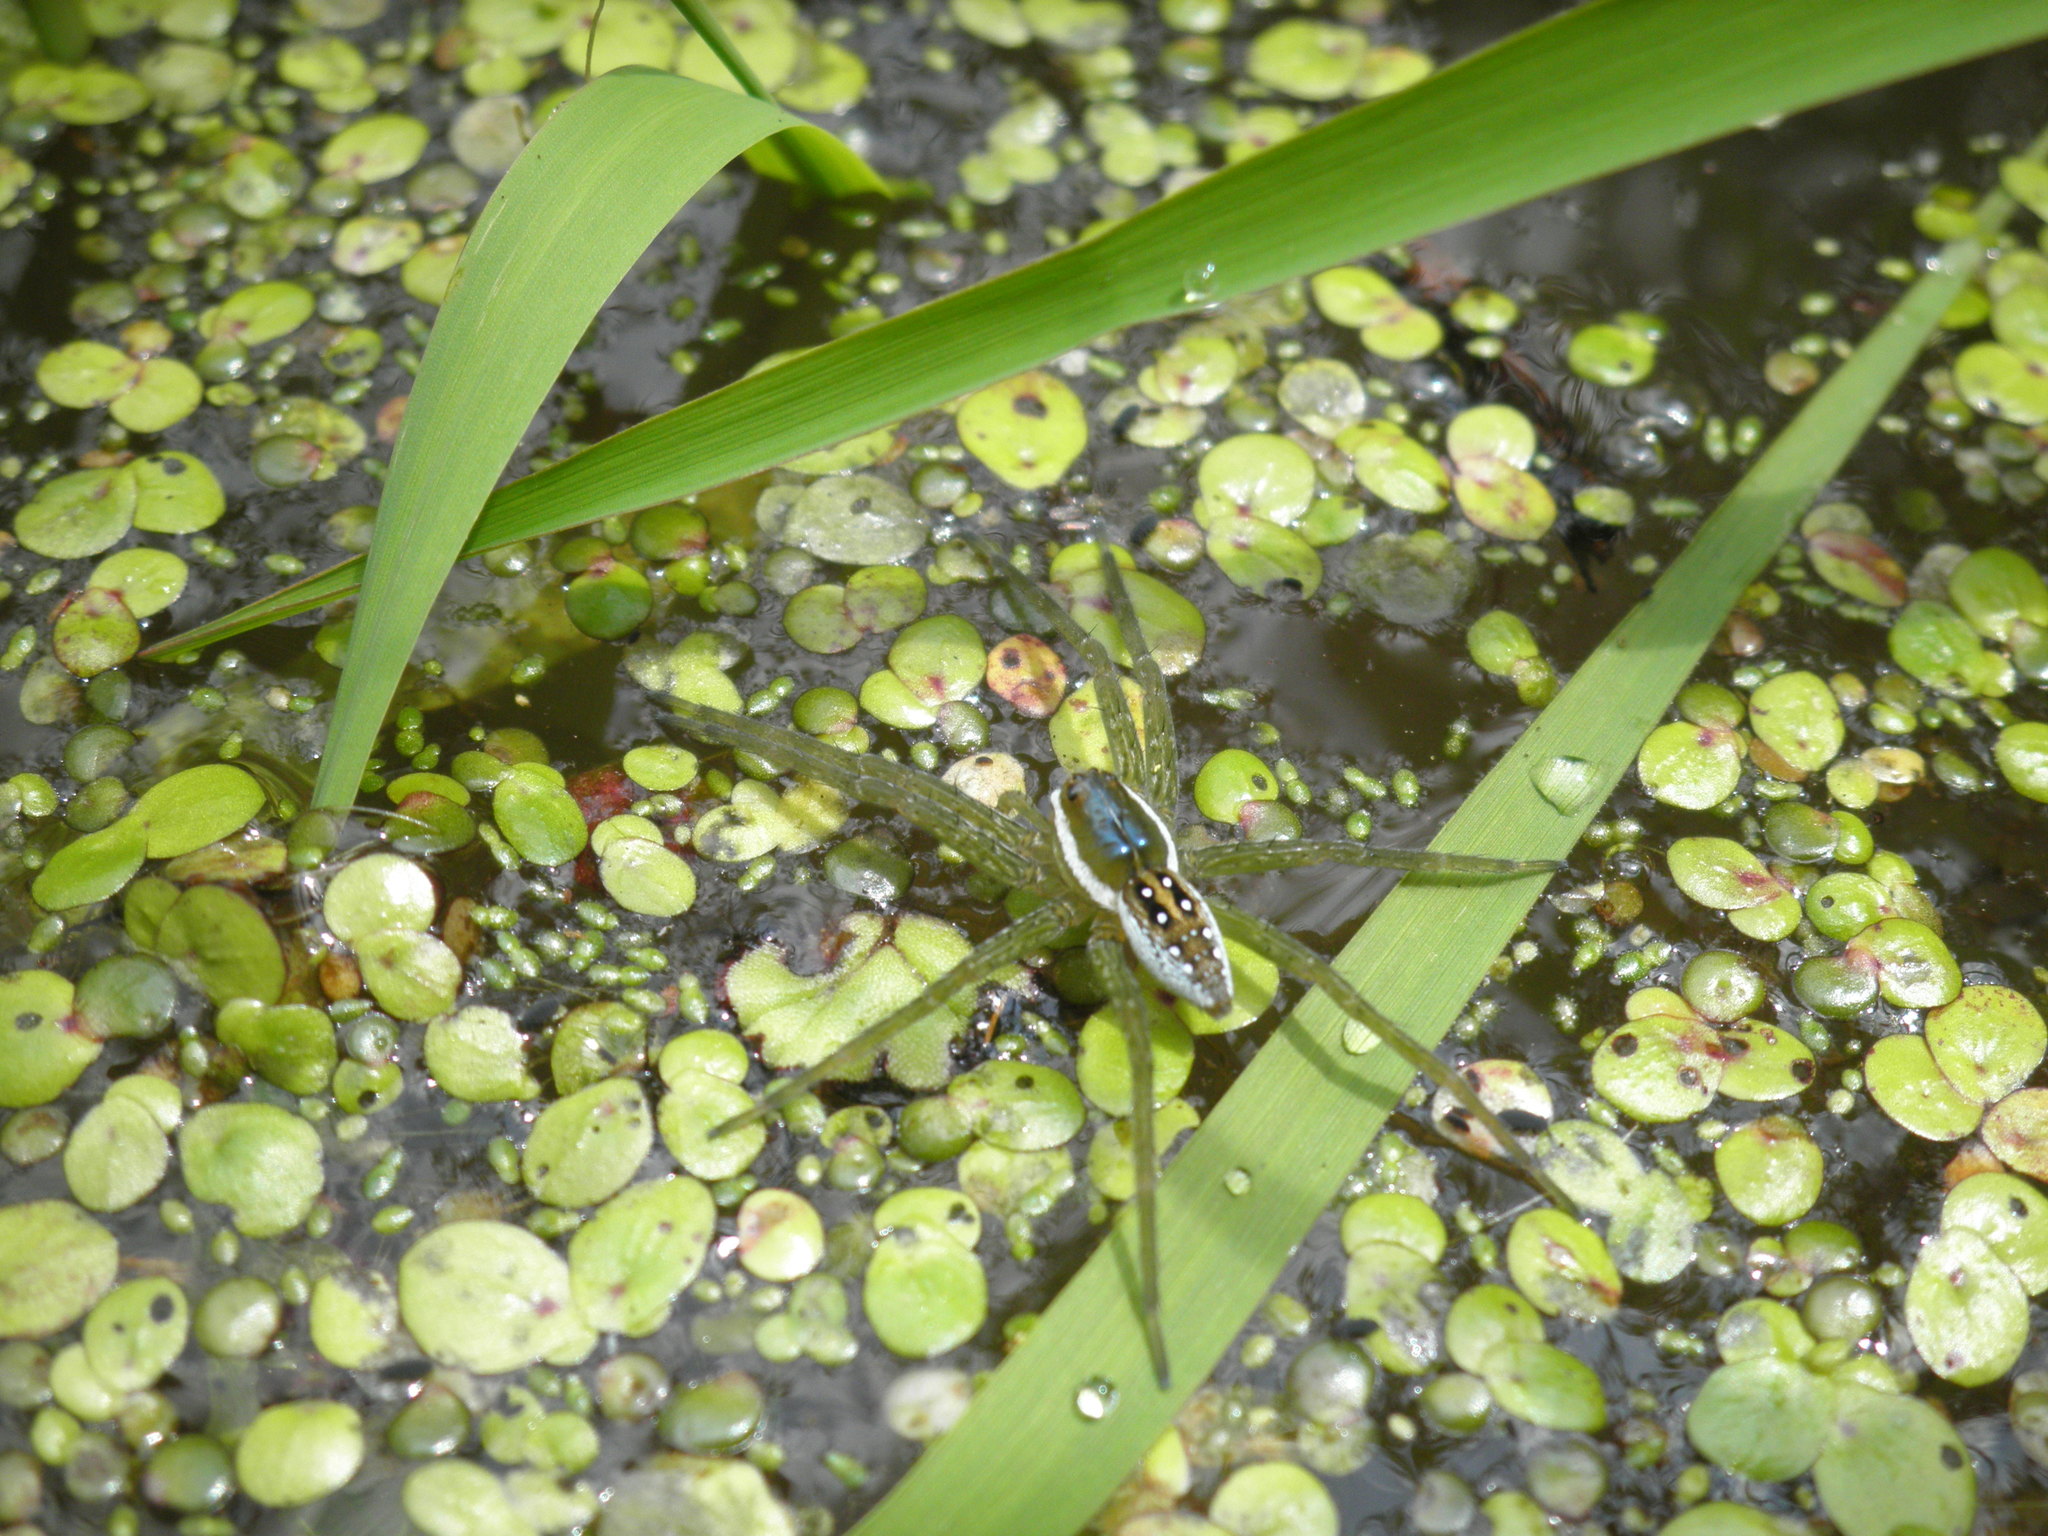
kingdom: Animalia
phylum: Arthropoda
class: Arachnida
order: Araneae
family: Pisauridae
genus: Dolomedes
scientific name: Dolomedes triton
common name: Six-spotted fishing spider
